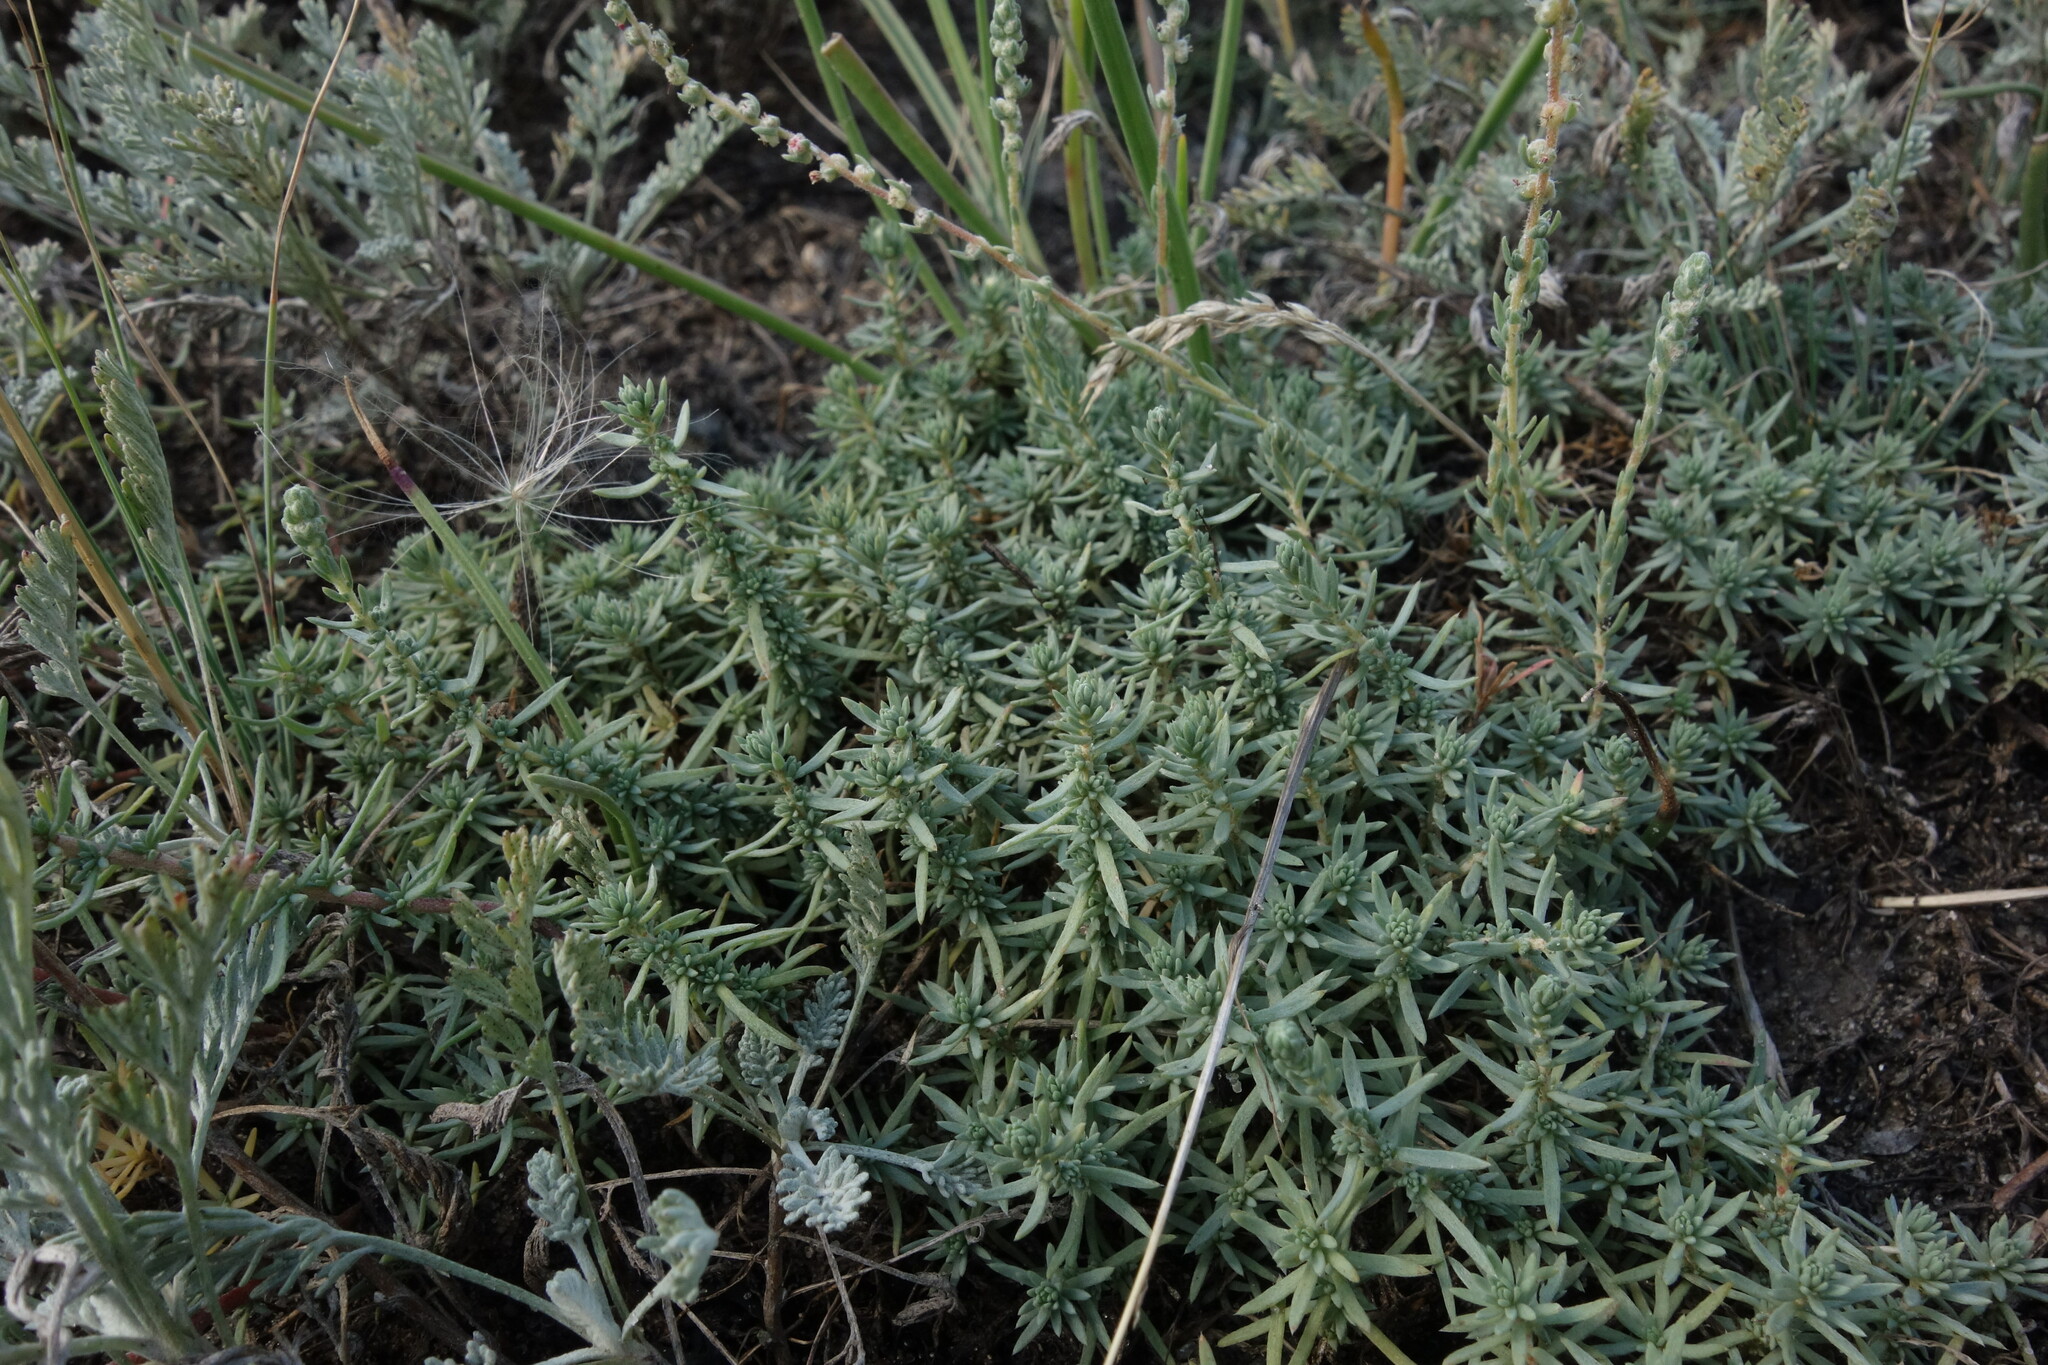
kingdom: Plantae
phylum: Tracheophyta
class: Magnoliopsida
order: Caryophyllales
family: Amaranthaceae
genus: Bassia
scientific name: Bassia prostrata
